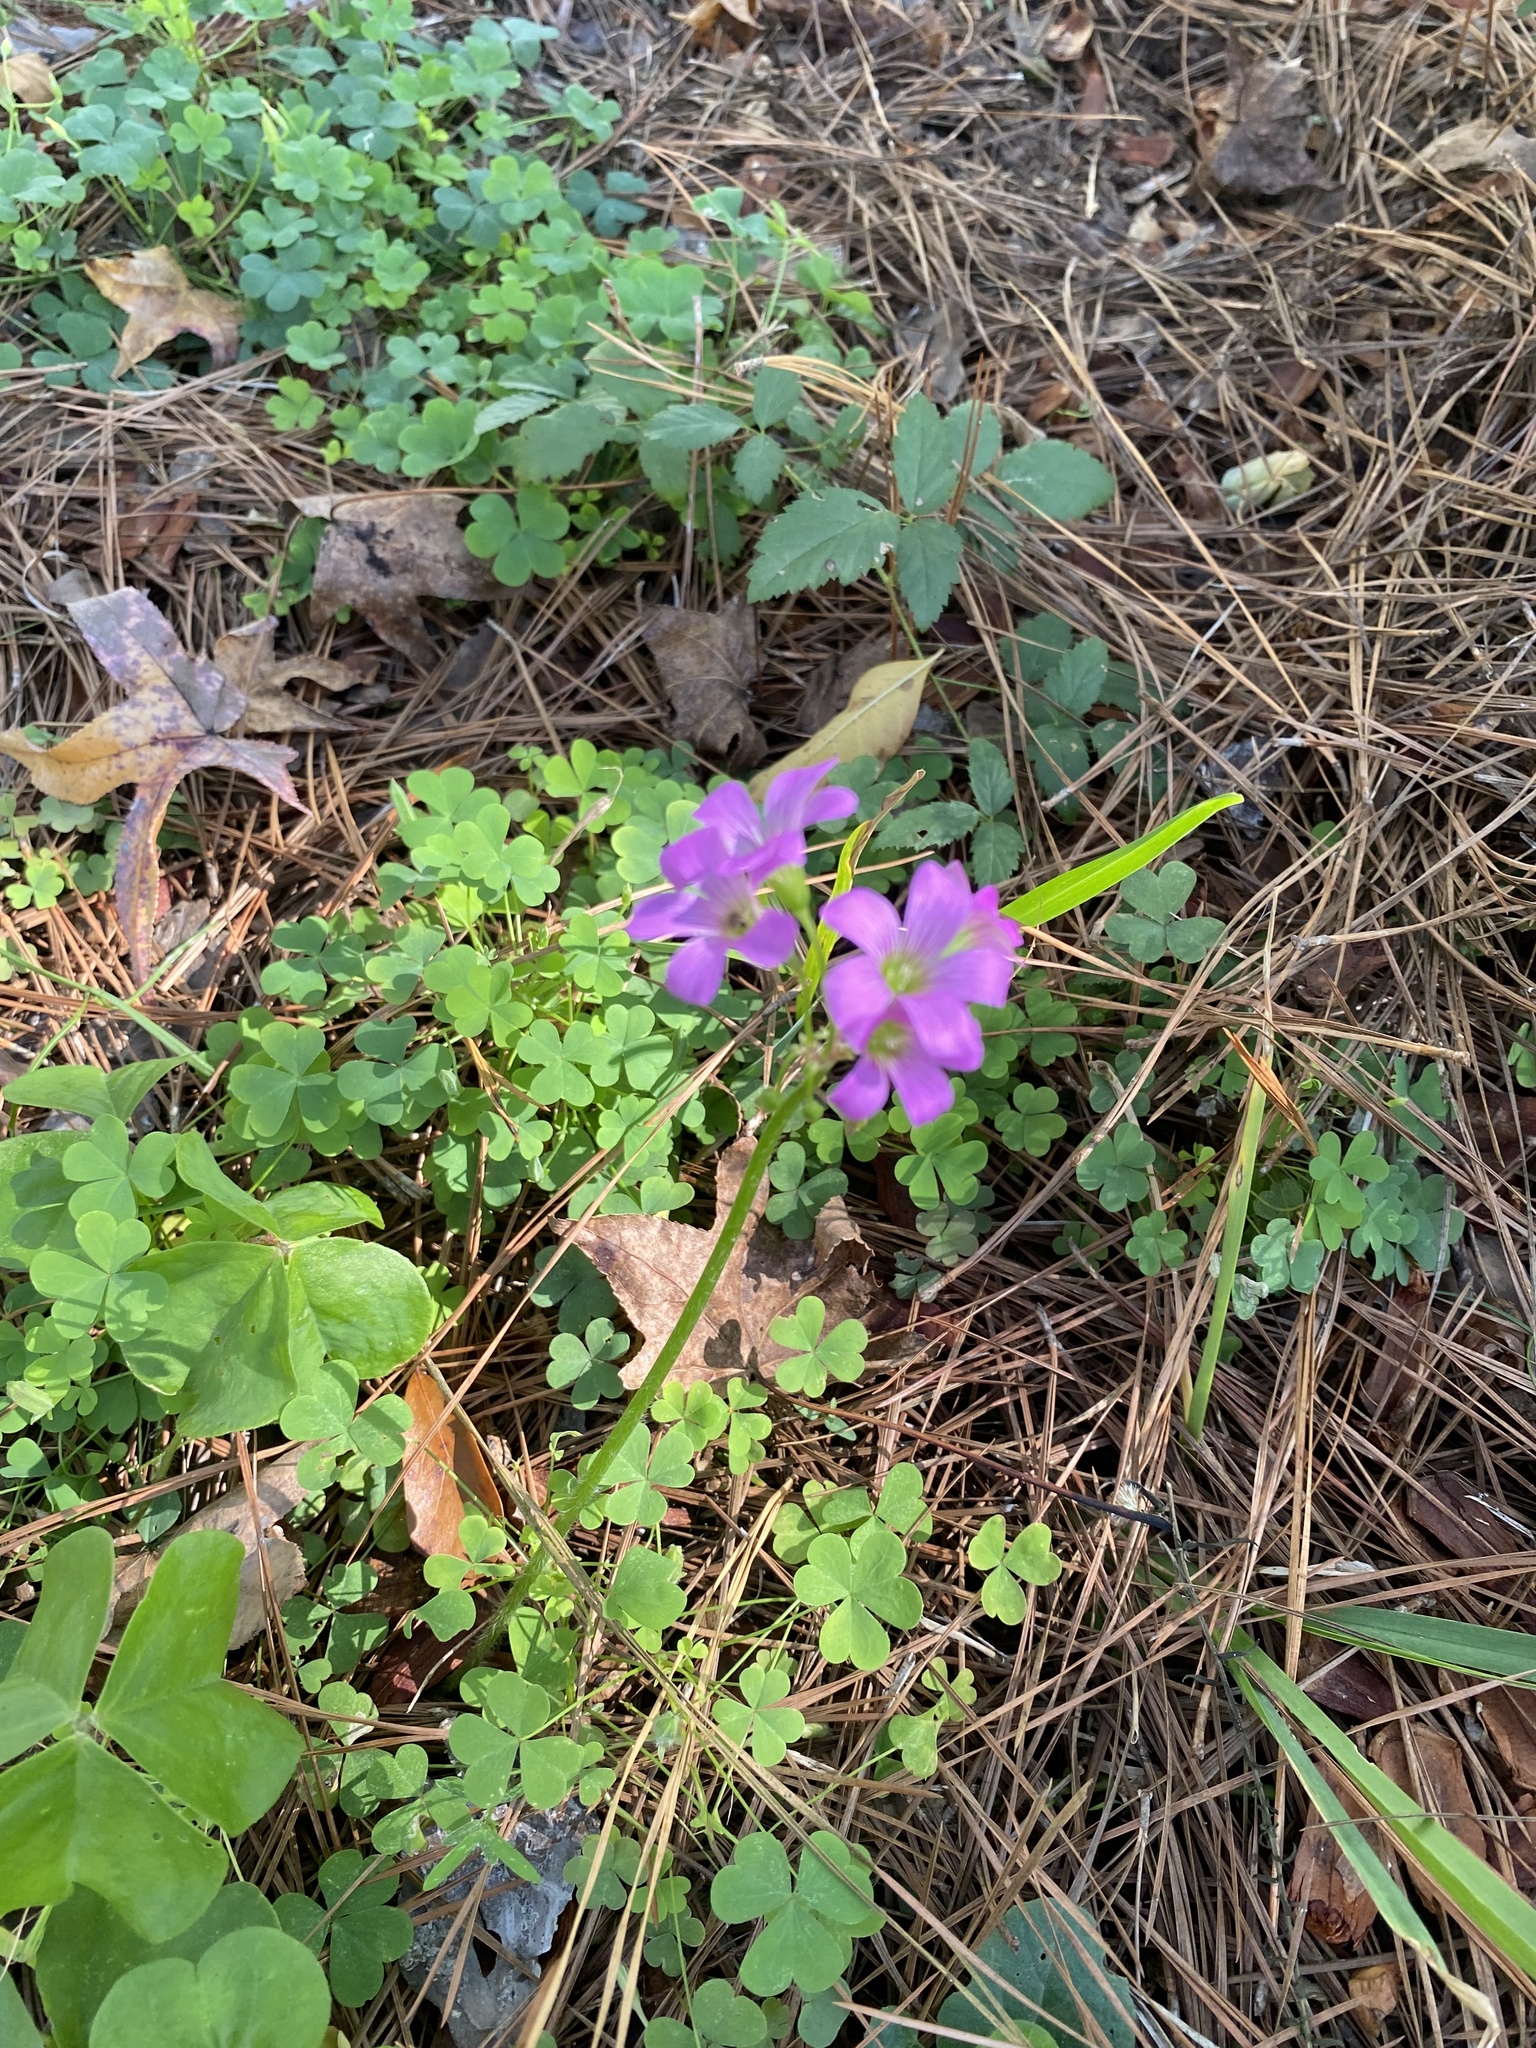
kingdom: Plantae
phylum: Tracheophyta
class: Magnoliopsida
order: Oxalidales
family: Oxalidaceae
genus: Oxalis
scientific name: Oxalis debilis
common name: Large-flowered pink-sorrel
